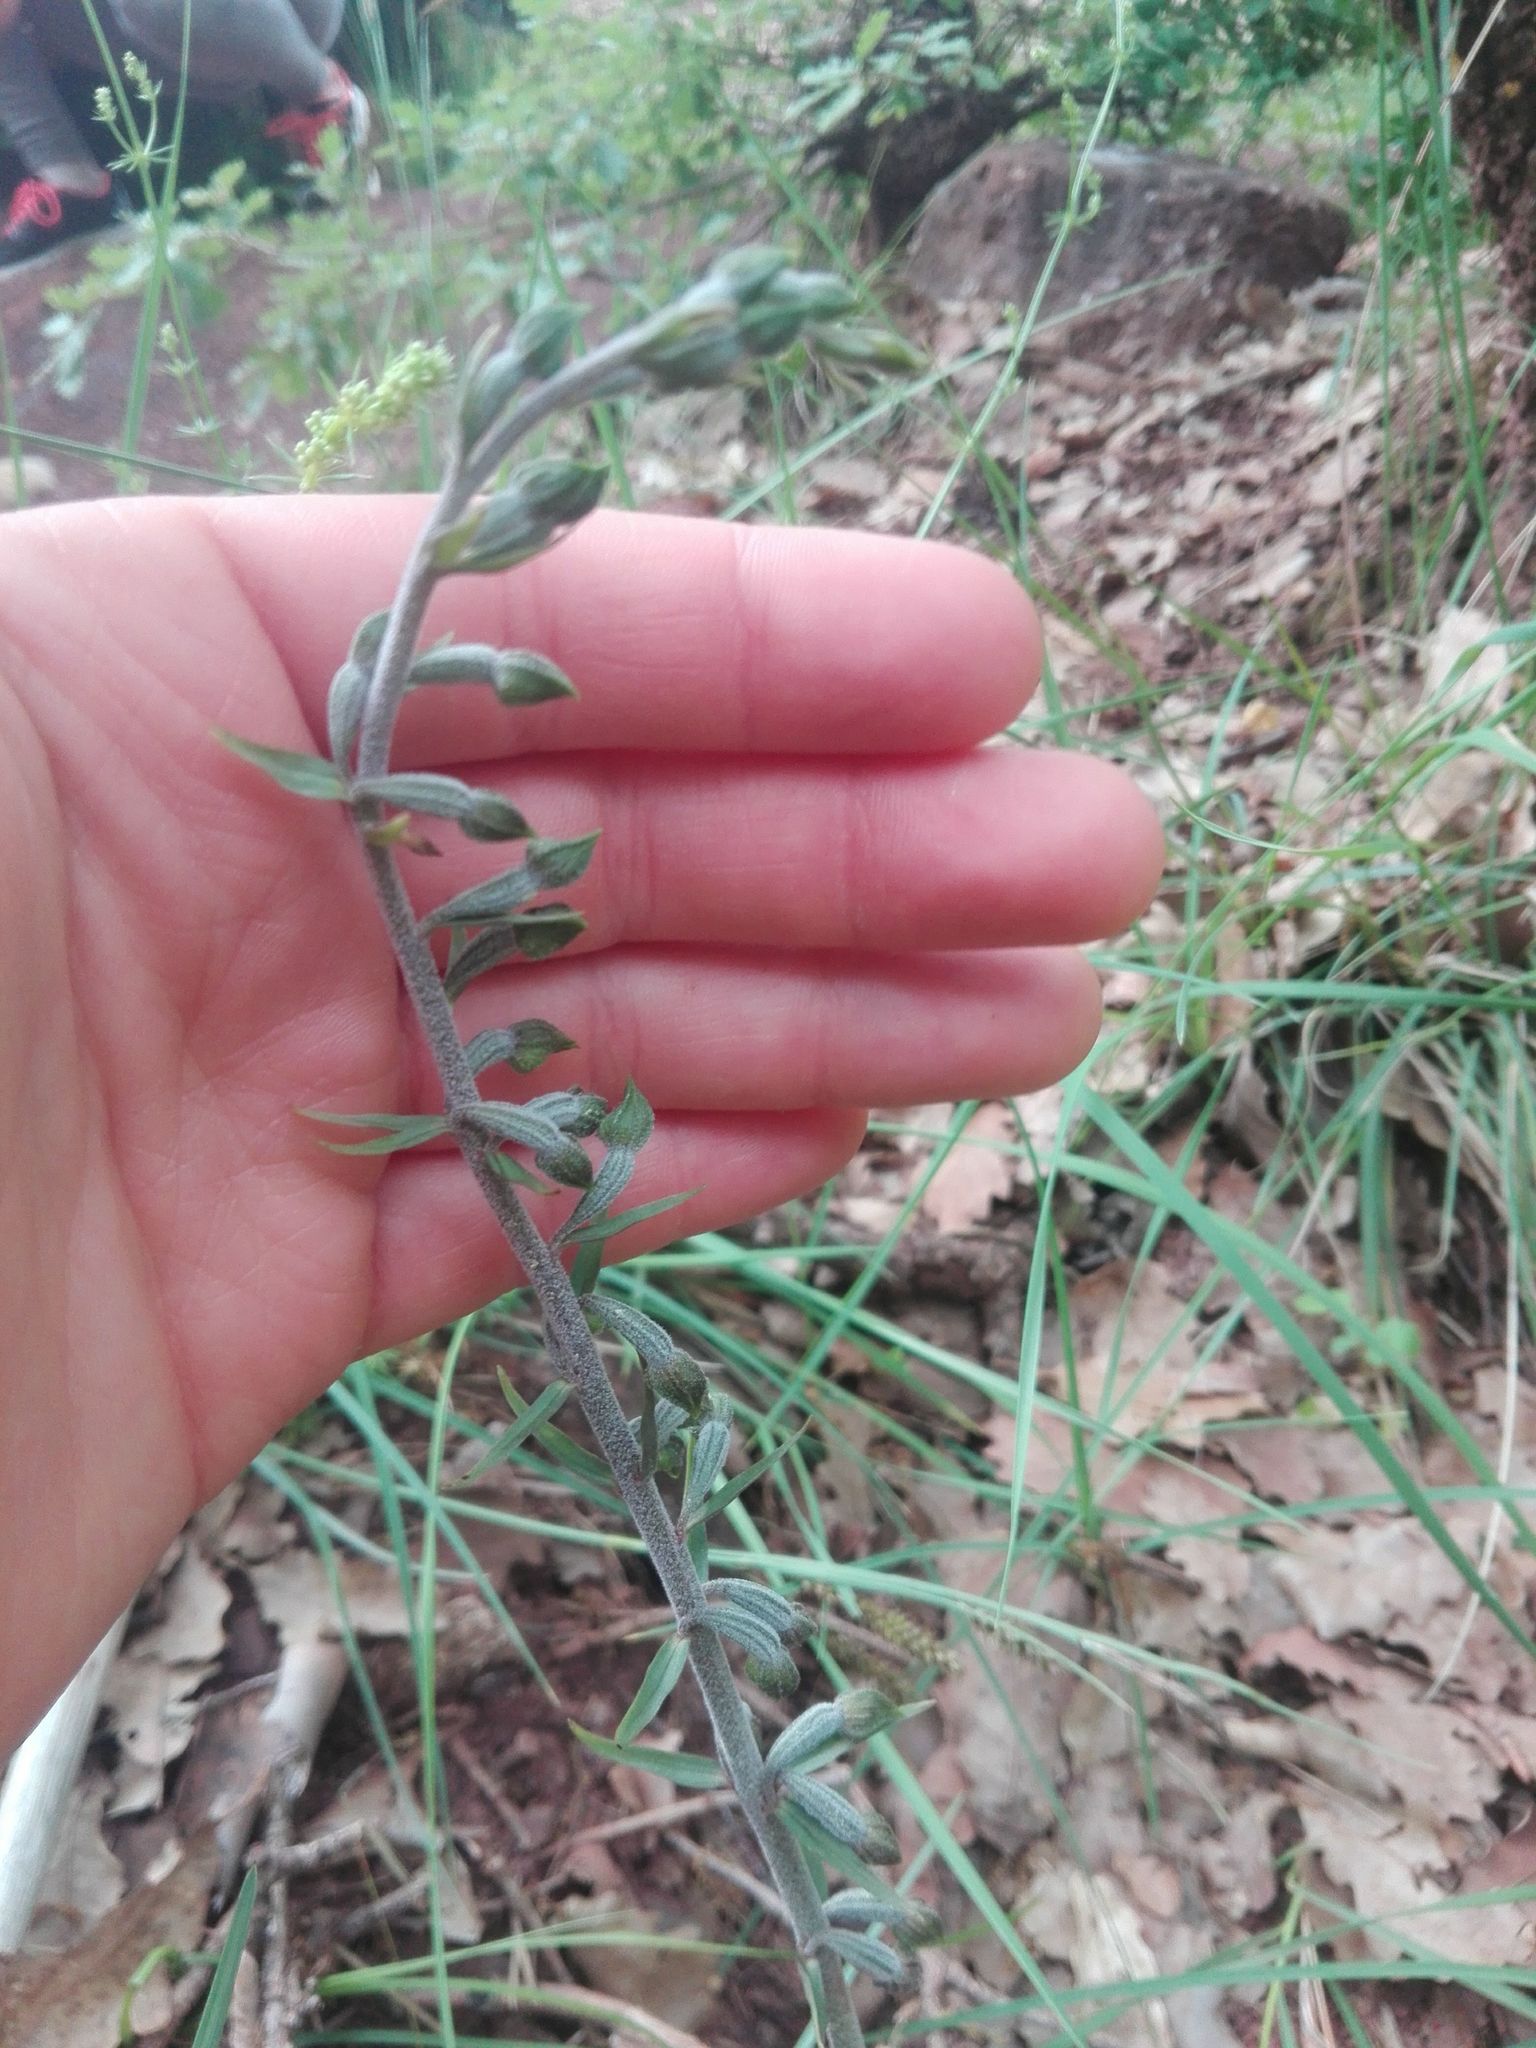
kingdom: Plantae
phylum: Tracheophyta
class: Liliopsida
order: Asparagales
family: Orchidaceae
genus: Epipactis
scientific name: Epipactis microphylla
